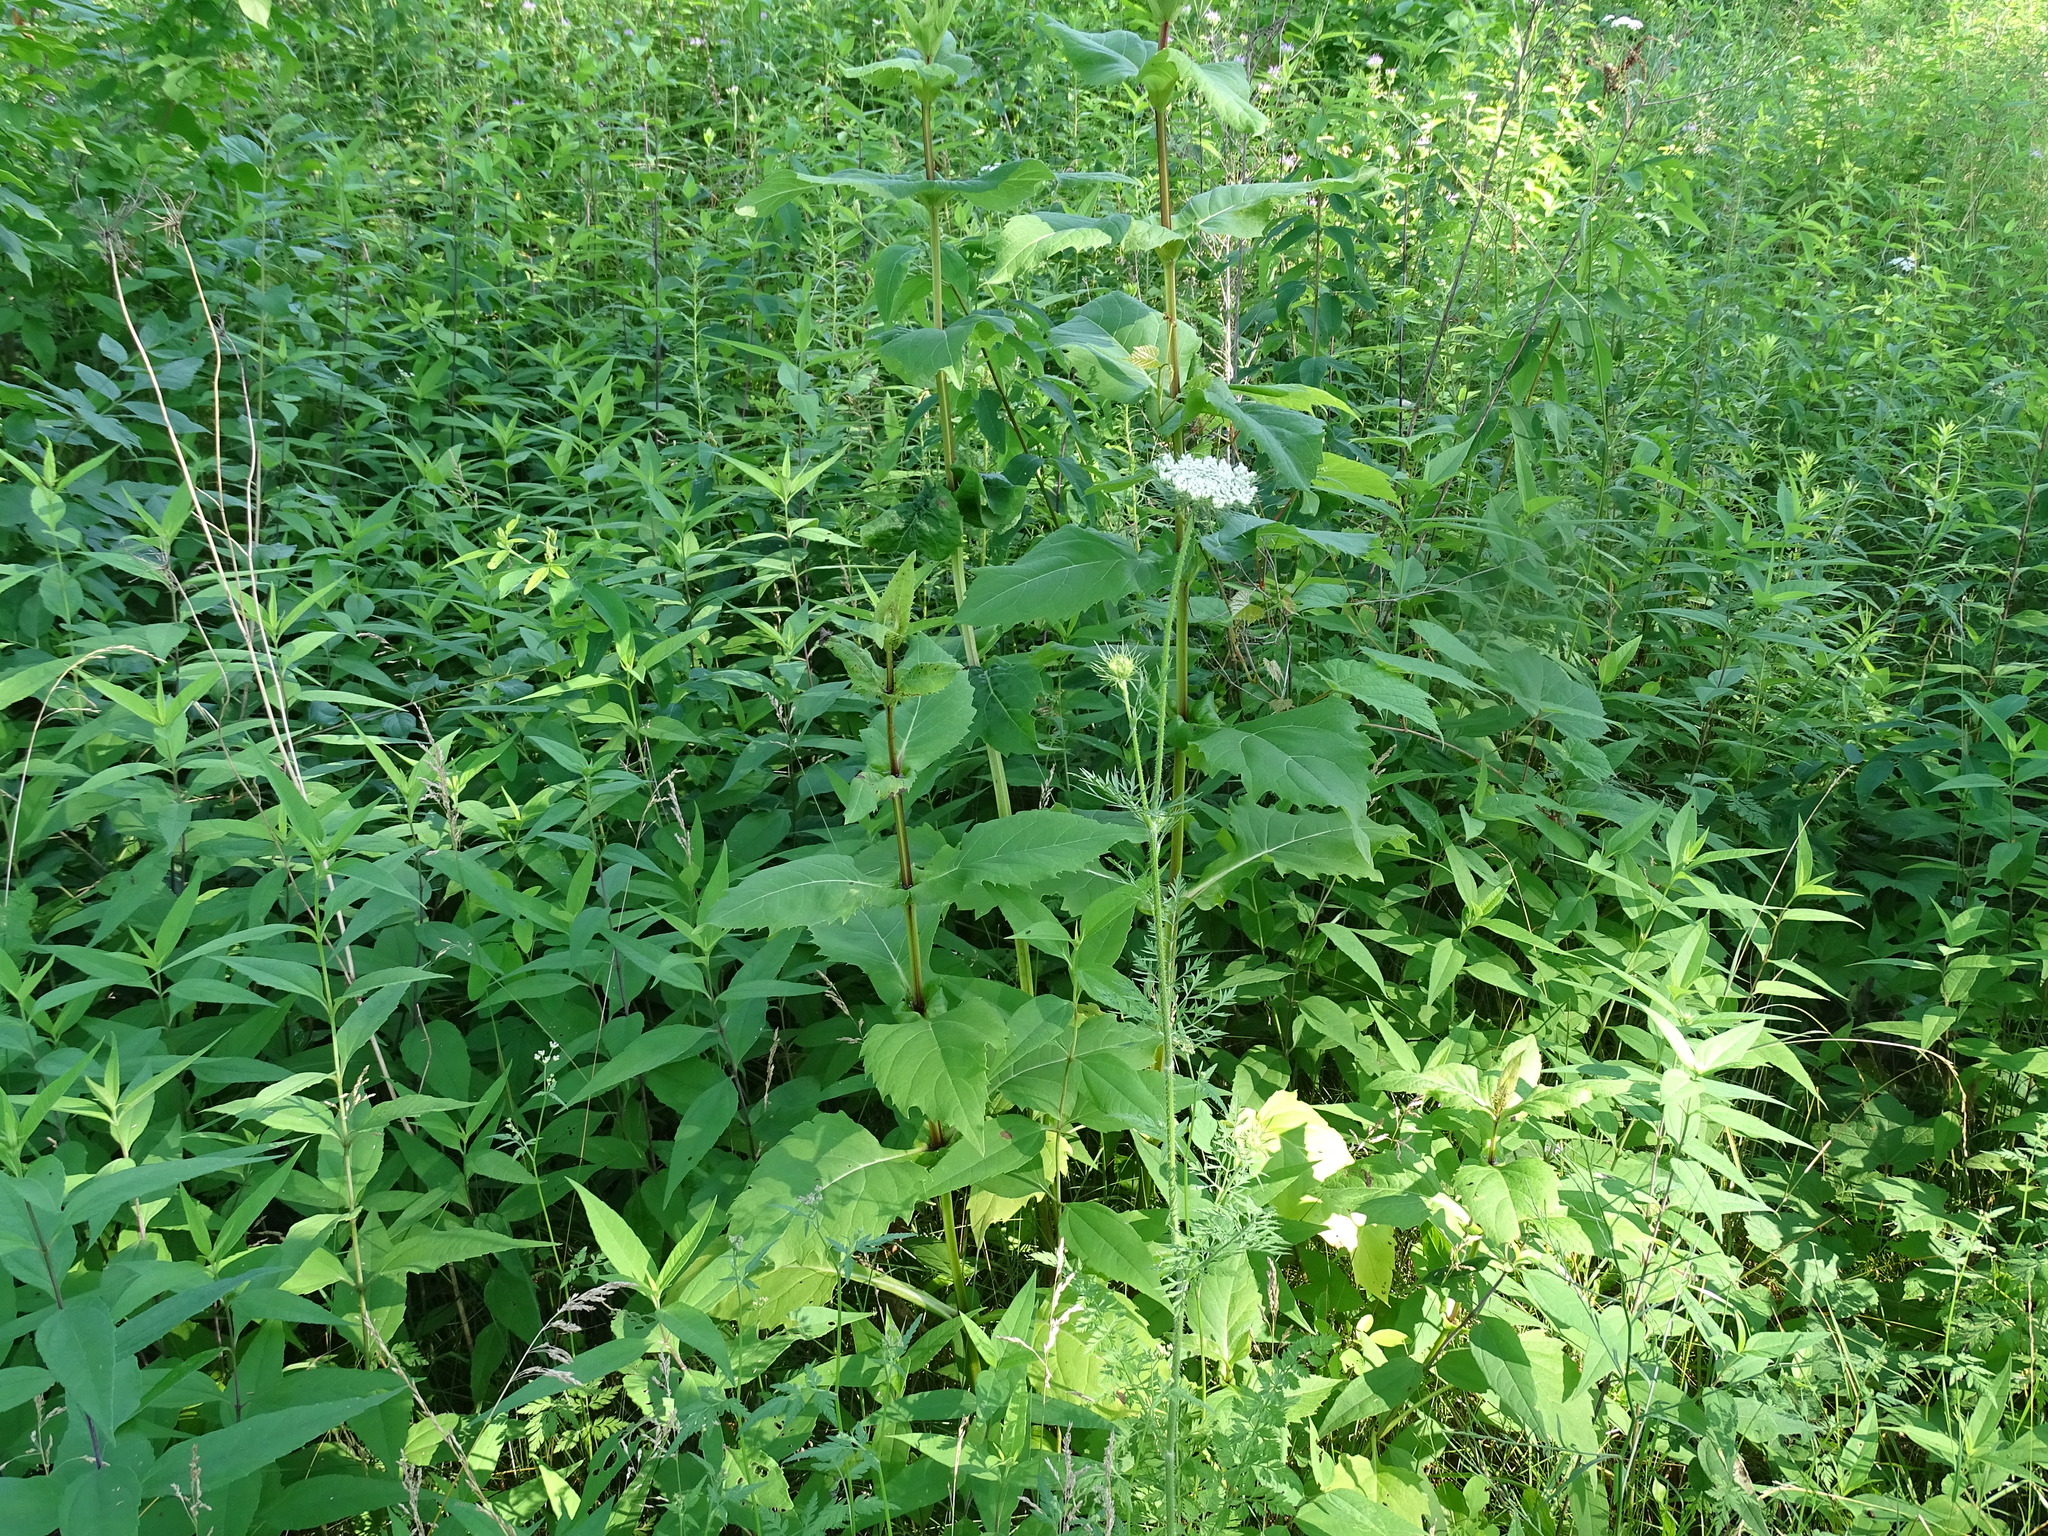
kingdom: Plantae
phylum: Tracheophyta
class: Magnoliopsida
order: Asterales
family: Asteraceae
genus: Silphium
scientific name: Silphium perfoliatum
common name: Cup-plant
